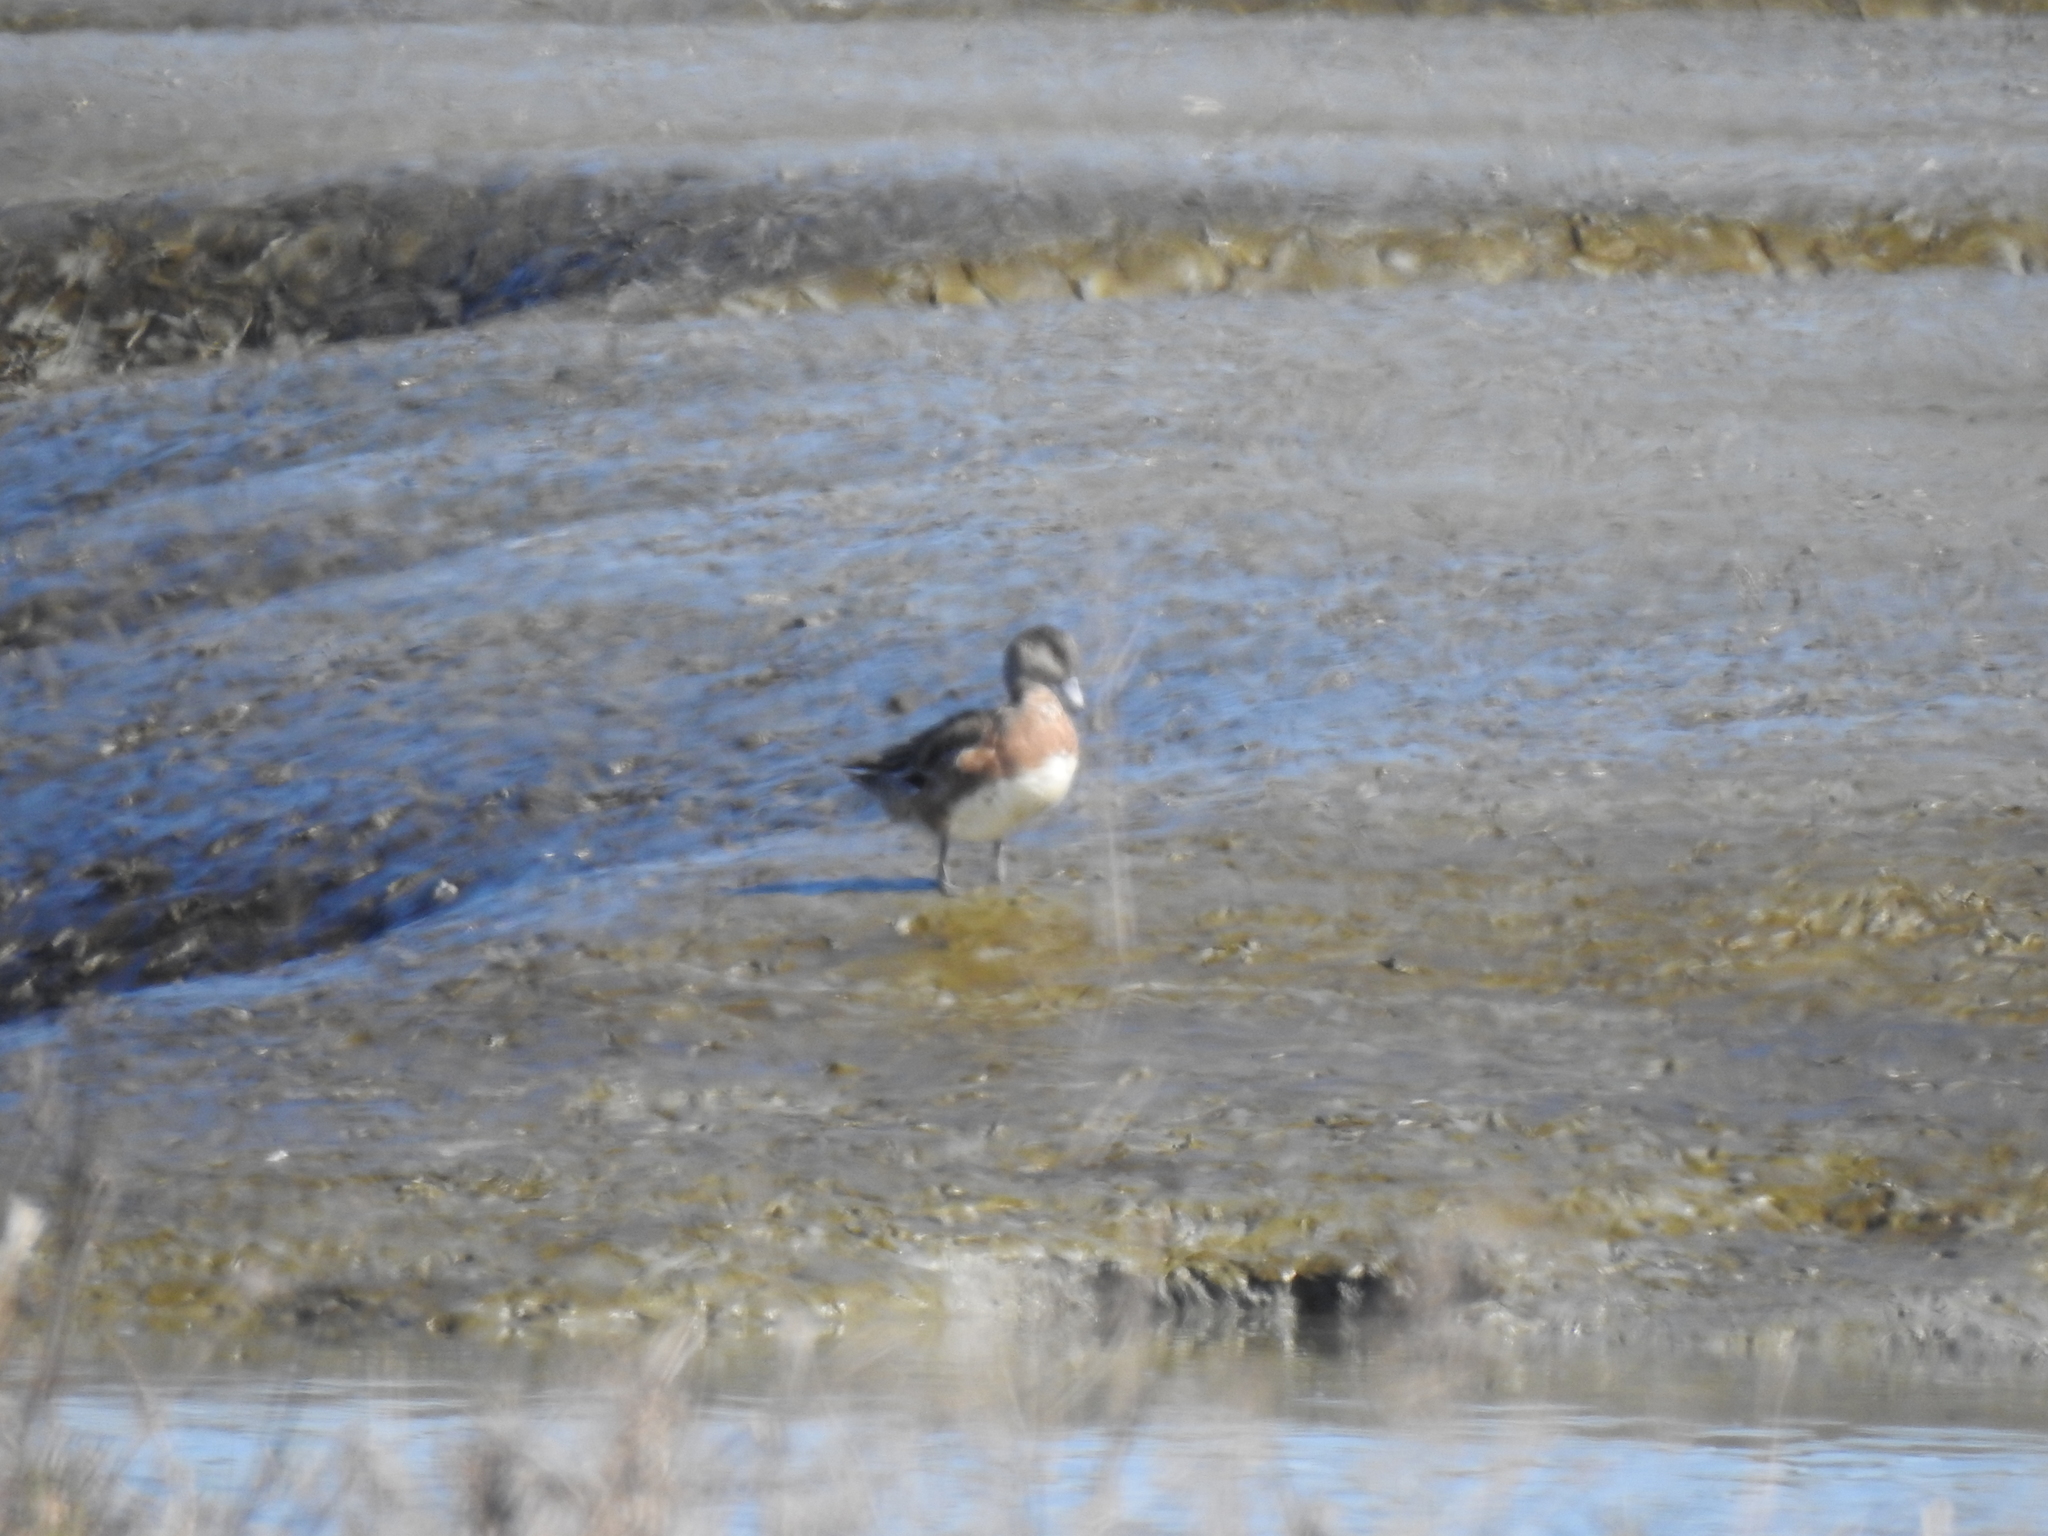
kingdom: Animalia
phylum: Chordata
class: Aves
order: Anseriformes
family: Anatidae
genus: Mareca
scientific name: Mareca americana
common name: American wigeon
